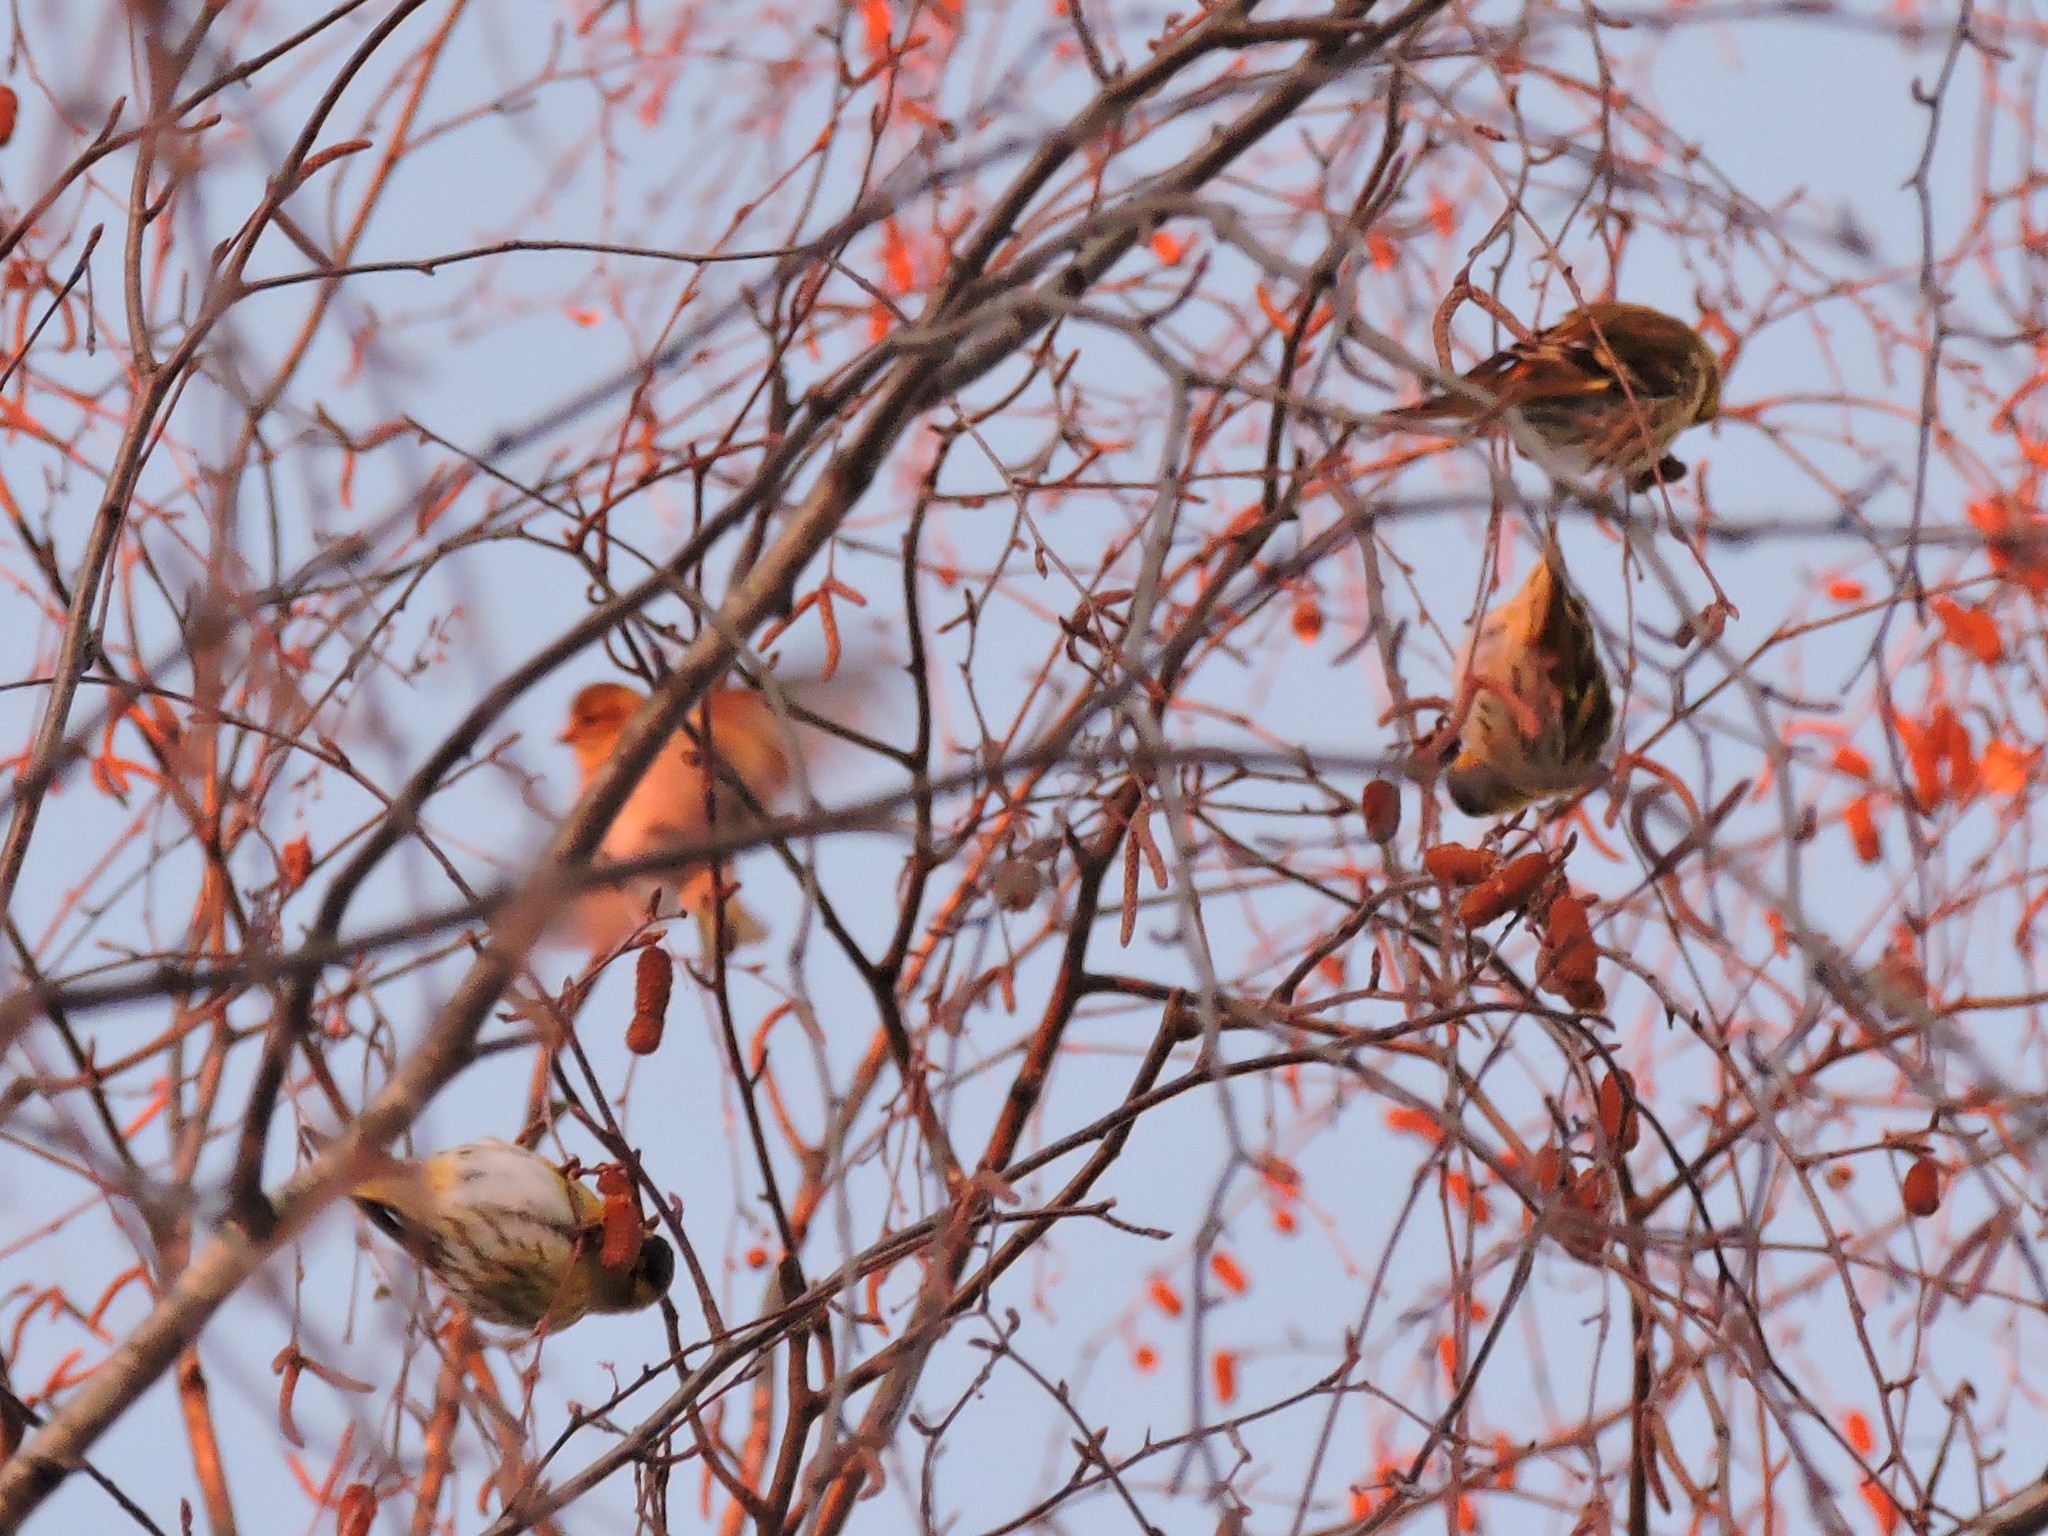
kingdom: Animalia
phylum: Chordata
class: Aves
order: Passeriformes
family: Fringillidae
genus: Spinus
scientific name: Spinus spinus
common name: Eurasian siskin
